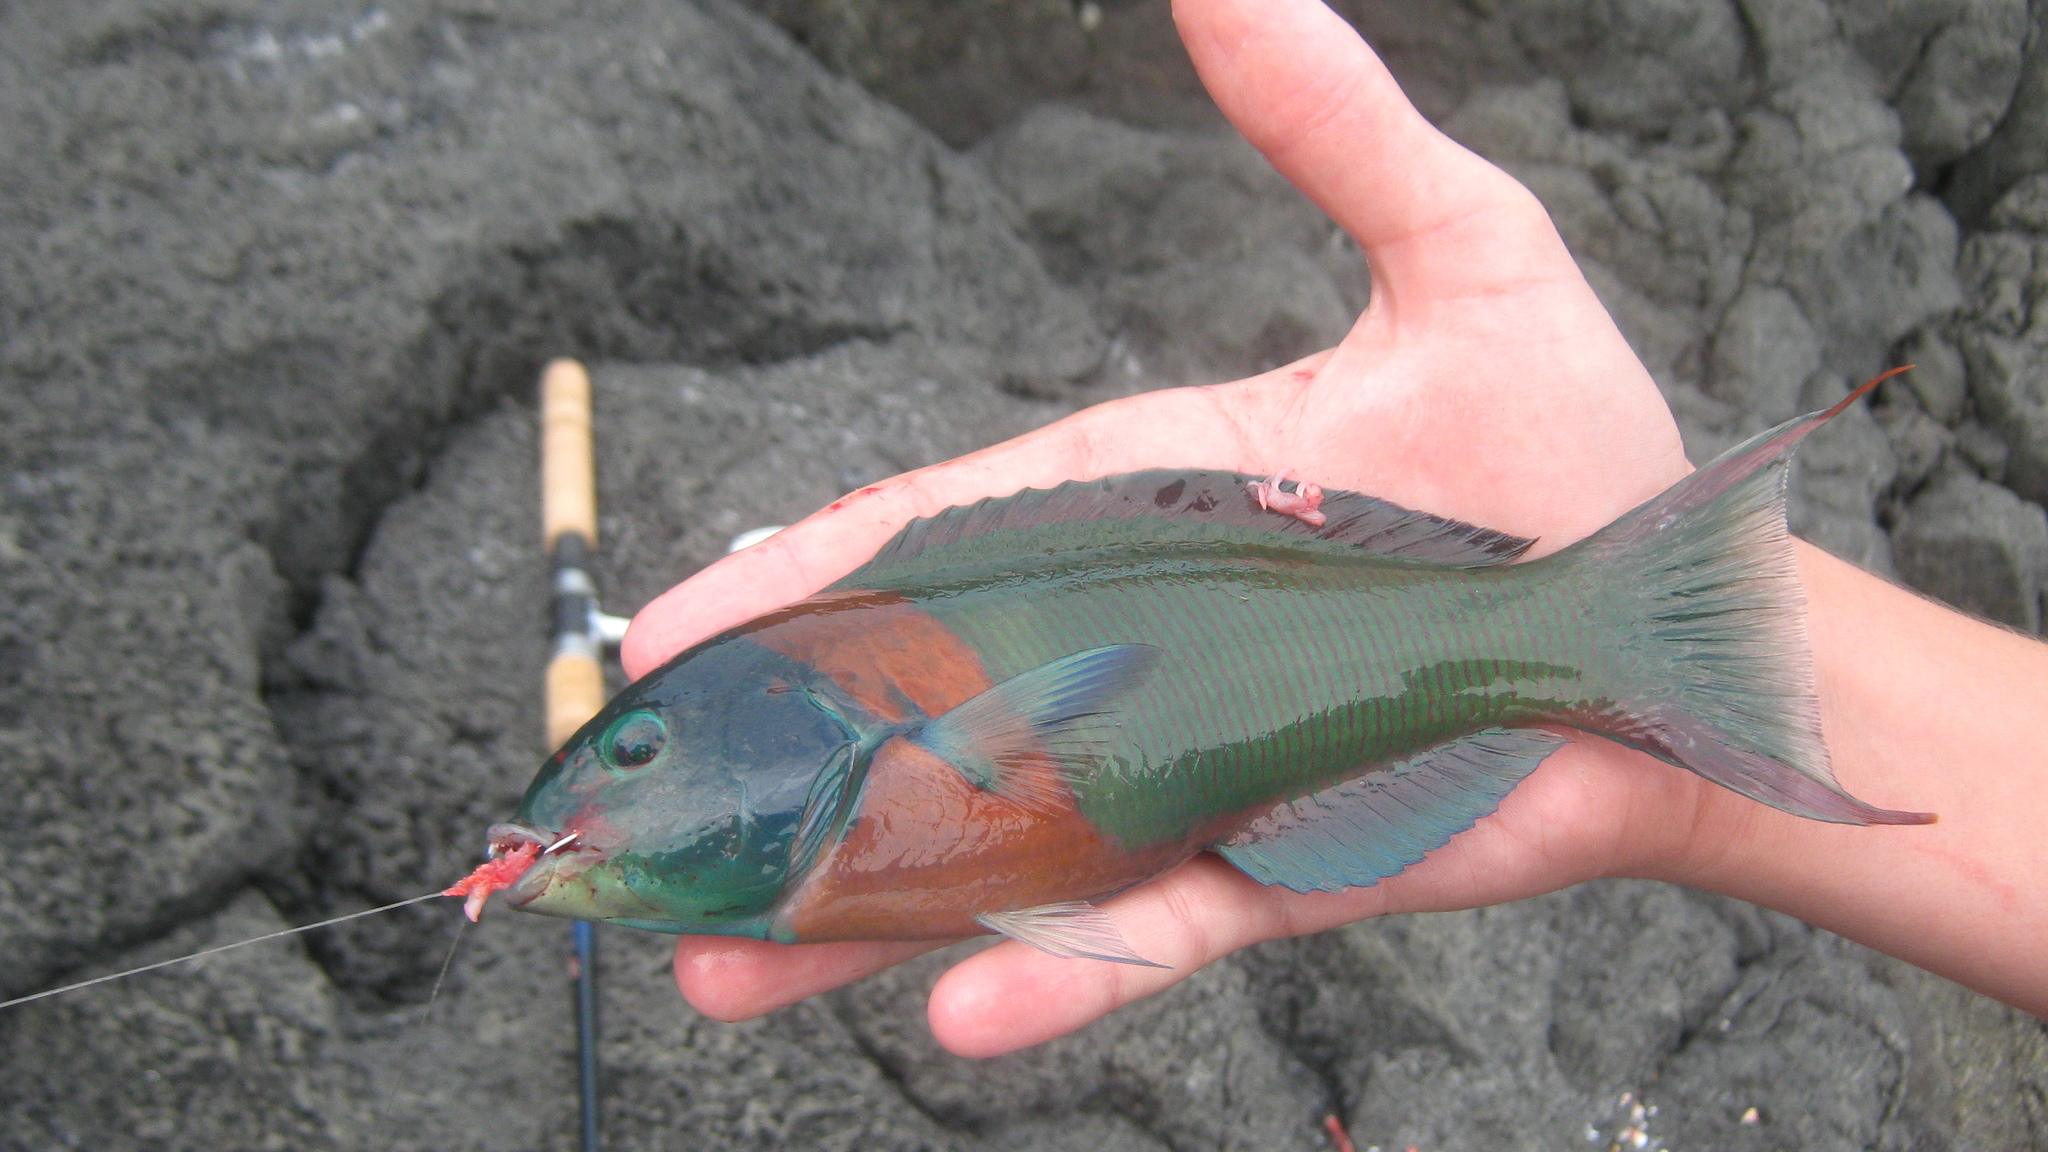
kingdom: Animalia
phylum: Chordata
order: Perciformes
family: Labridae
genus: Thalassoma
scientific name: Thalassoma duperrey
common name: Saddle wrasse
